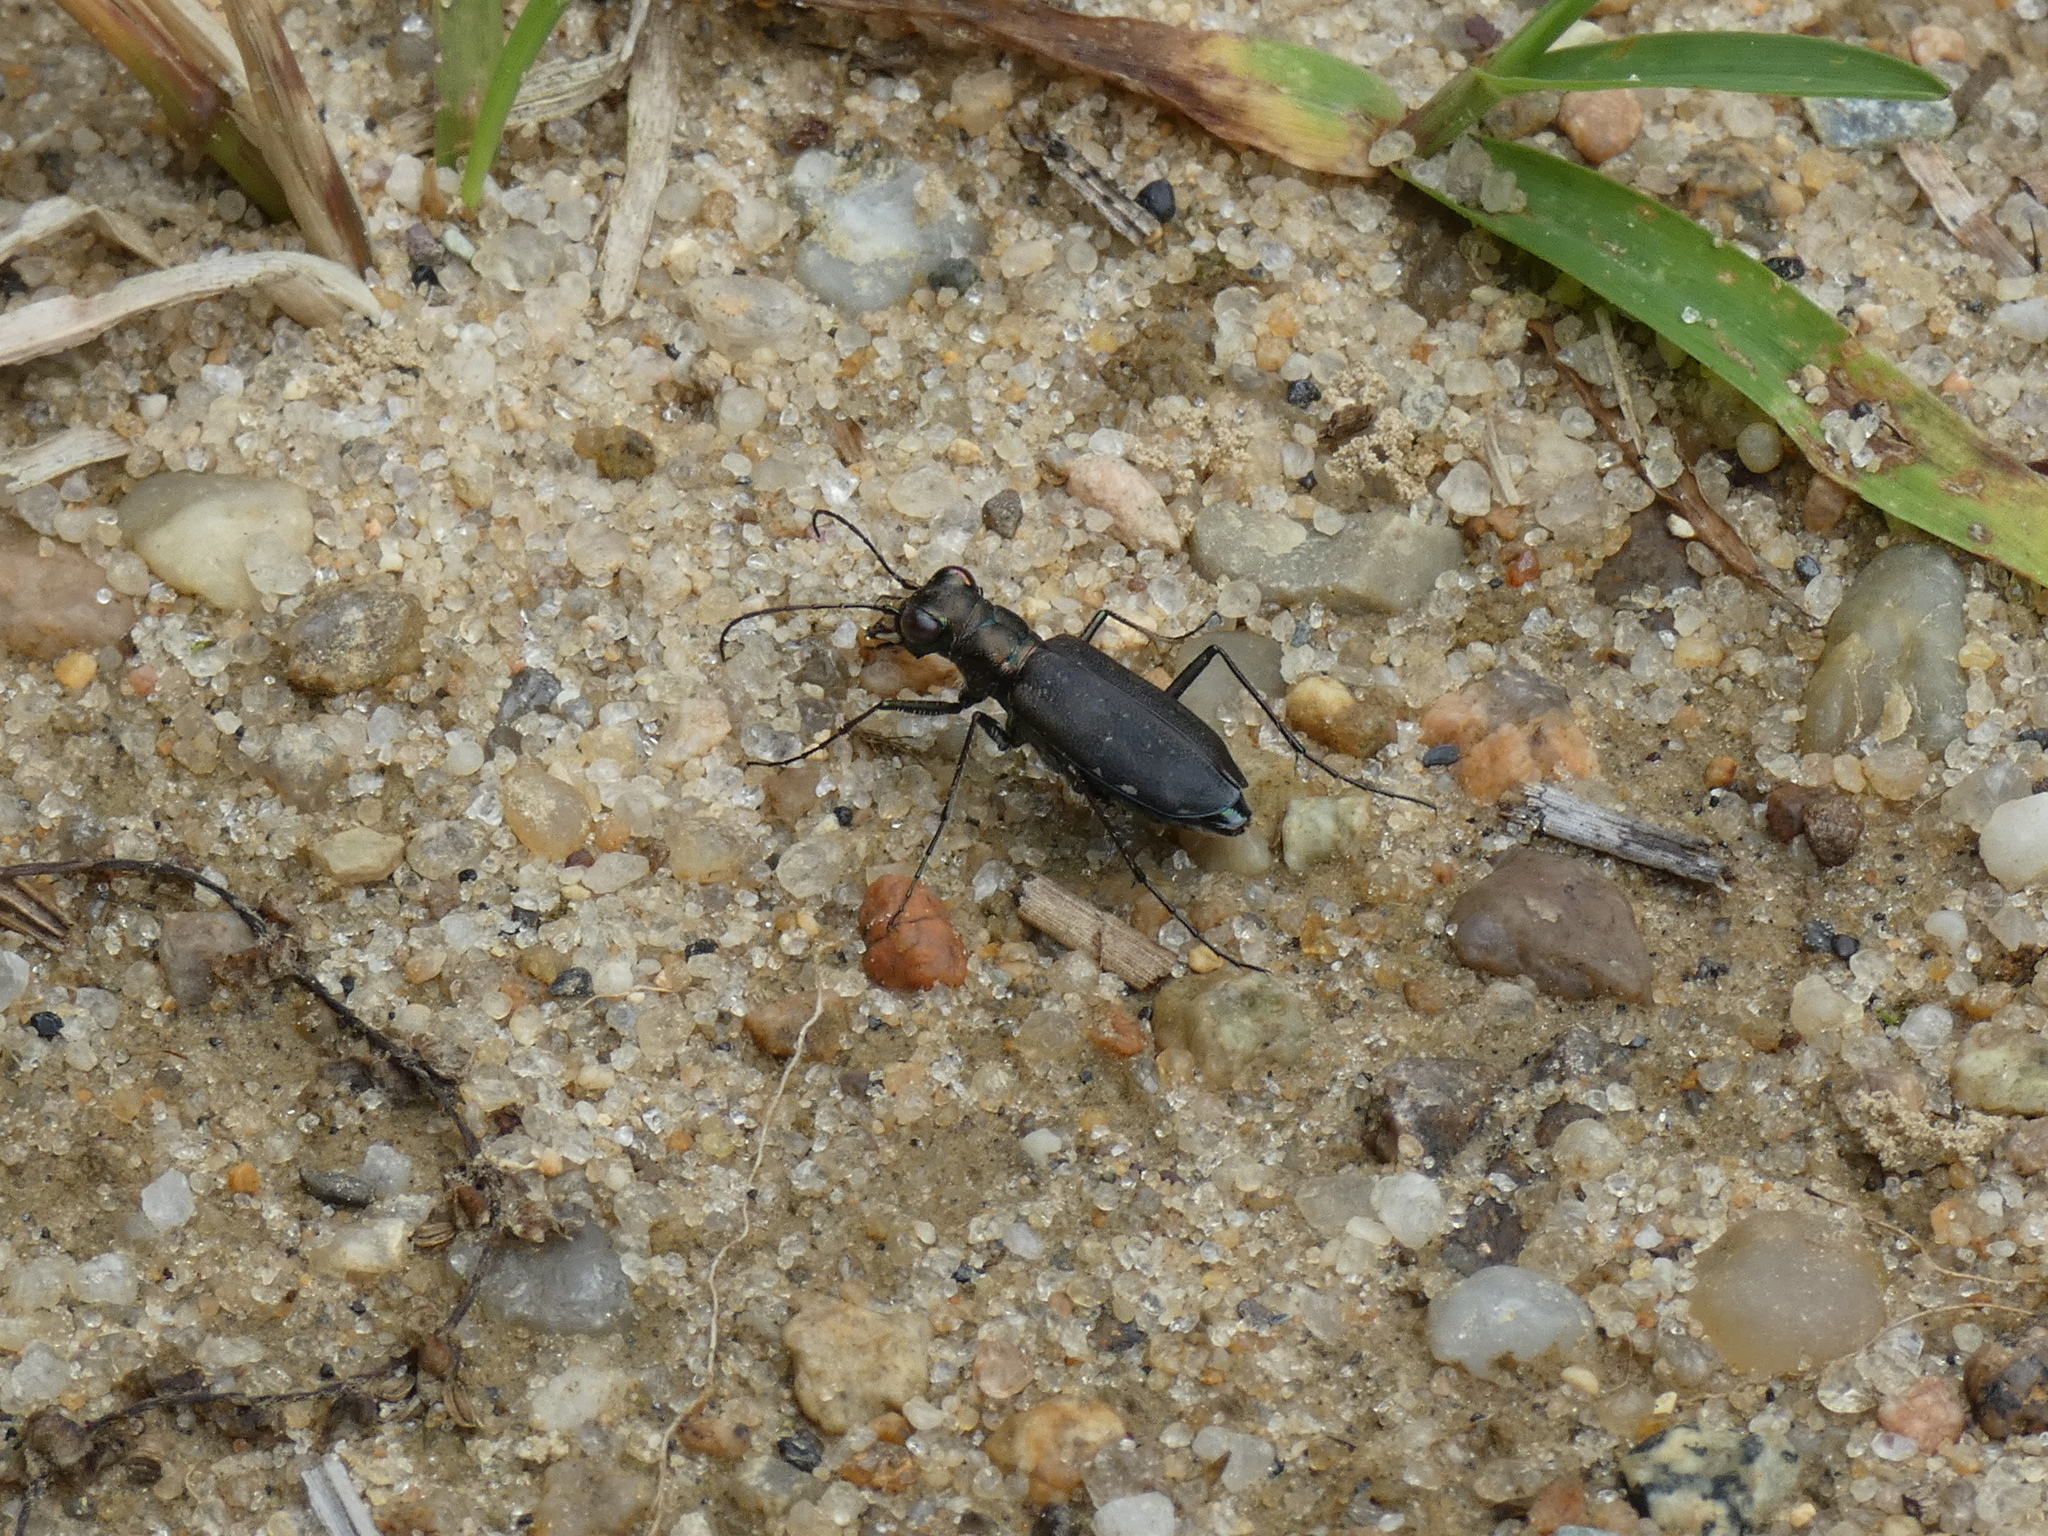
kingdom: Animalia
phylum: Arthropoda
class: Insecta
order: Coleoptera
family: Carabidae
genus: Cicindela
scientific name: Cicindela punctulata
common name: Punctured tiger beetle
